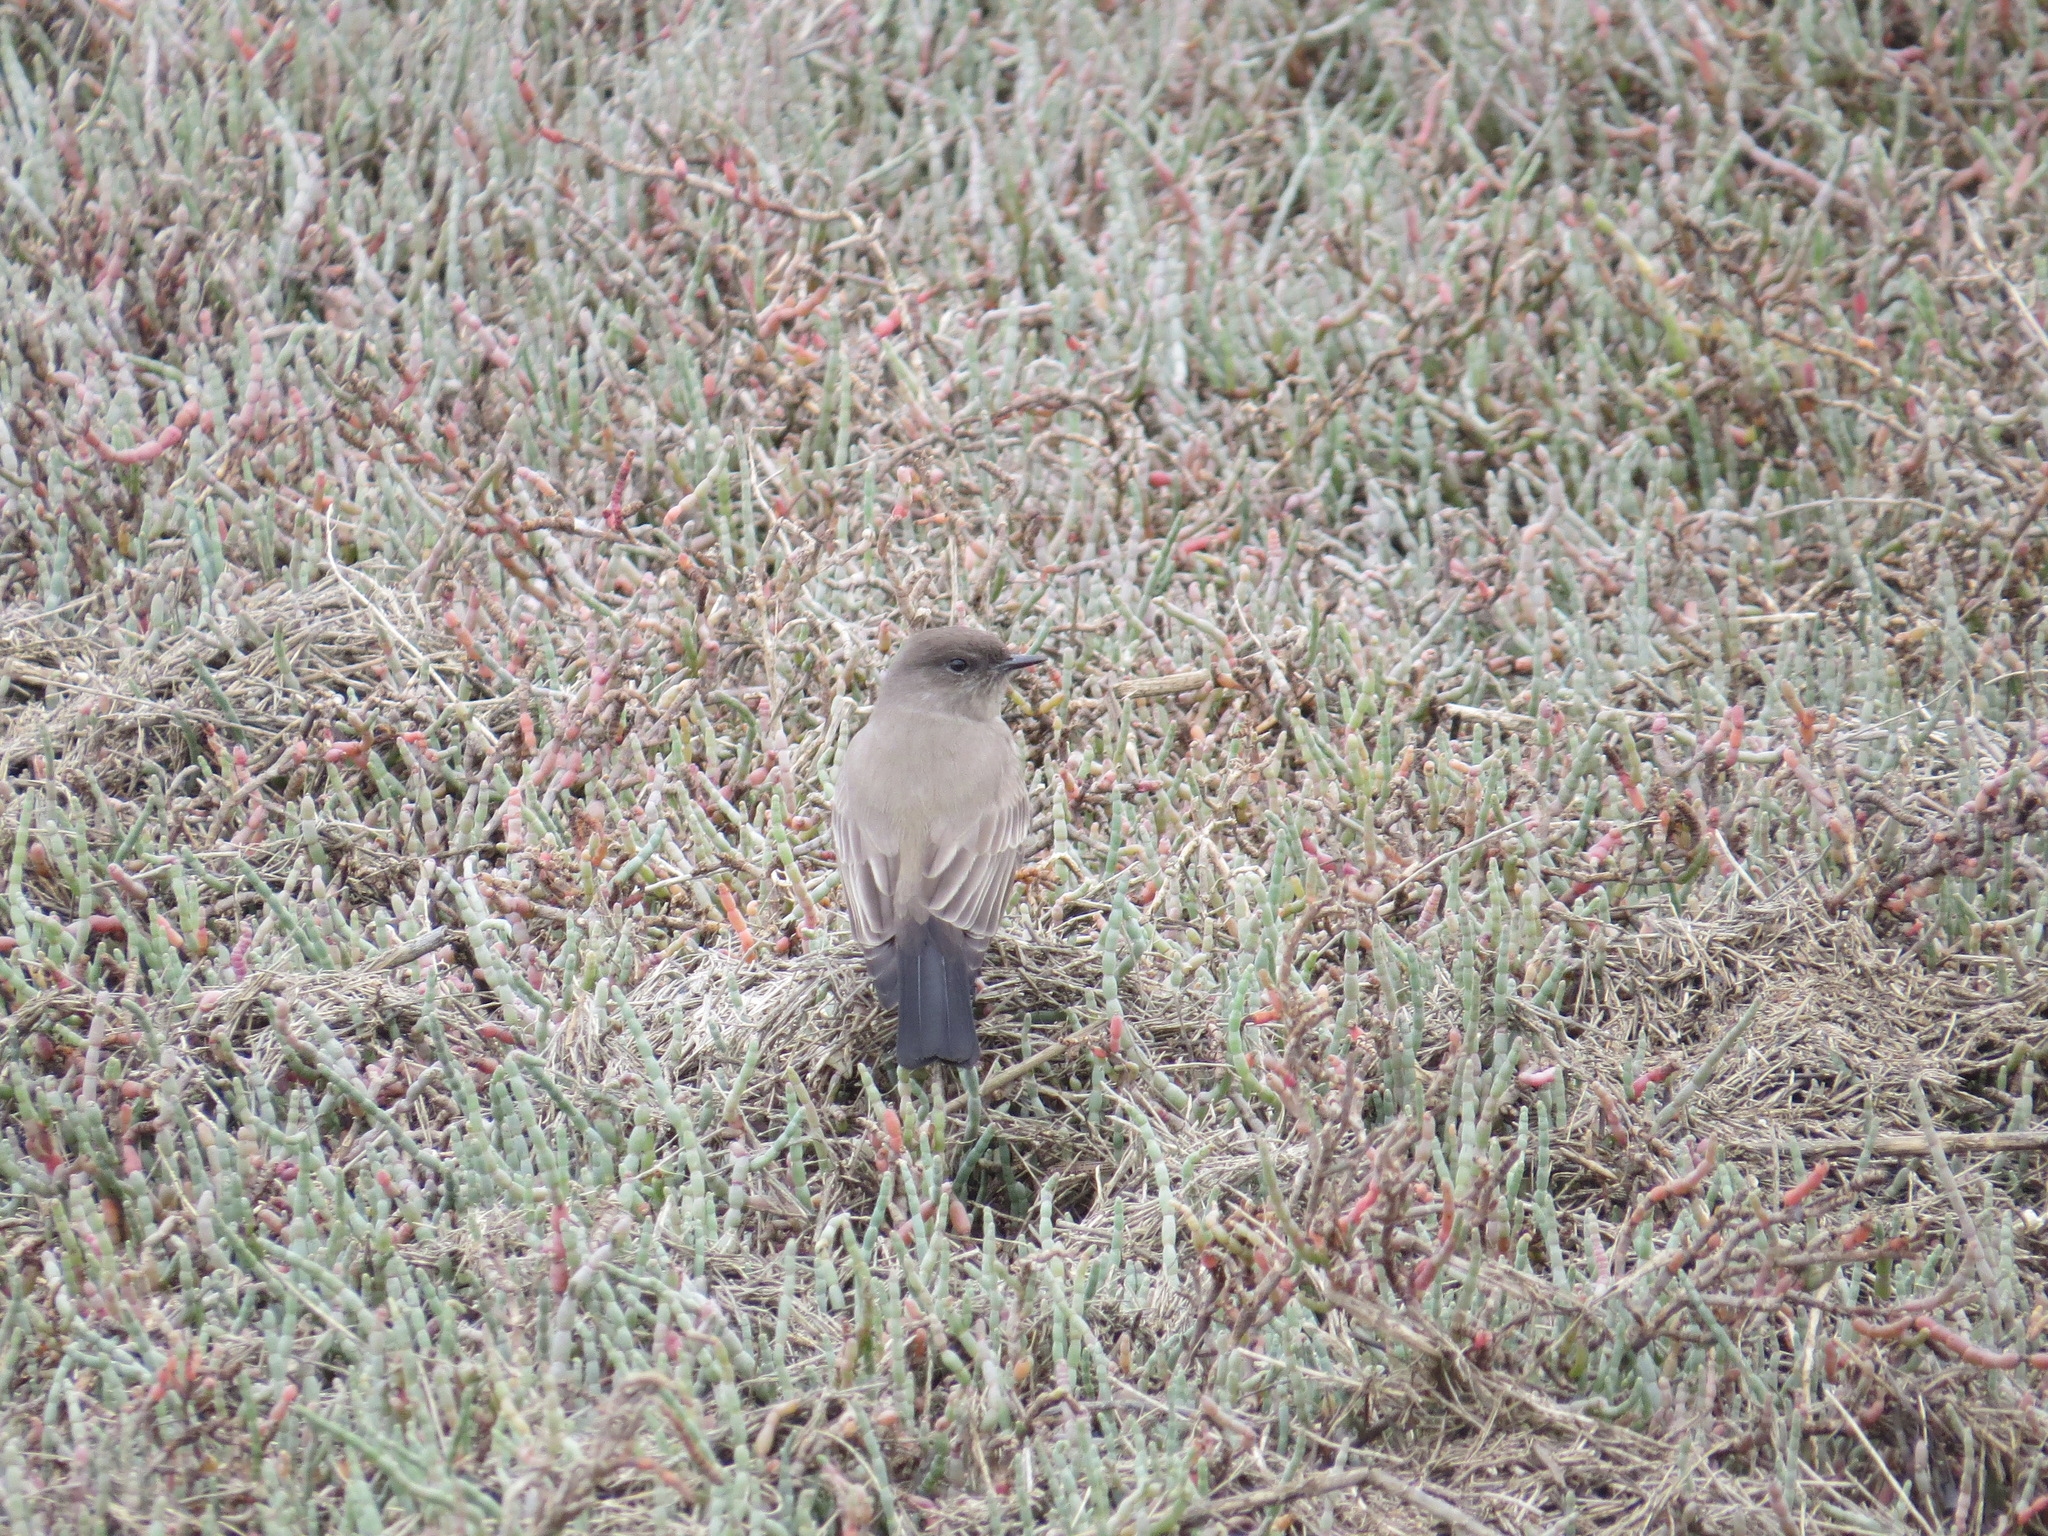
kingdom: Animalia
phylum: Chordata
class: Aves
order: Passeriformes
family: Tyrannidae
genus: Sayornis
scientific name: Sayornis saya
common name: Say's phoebe
